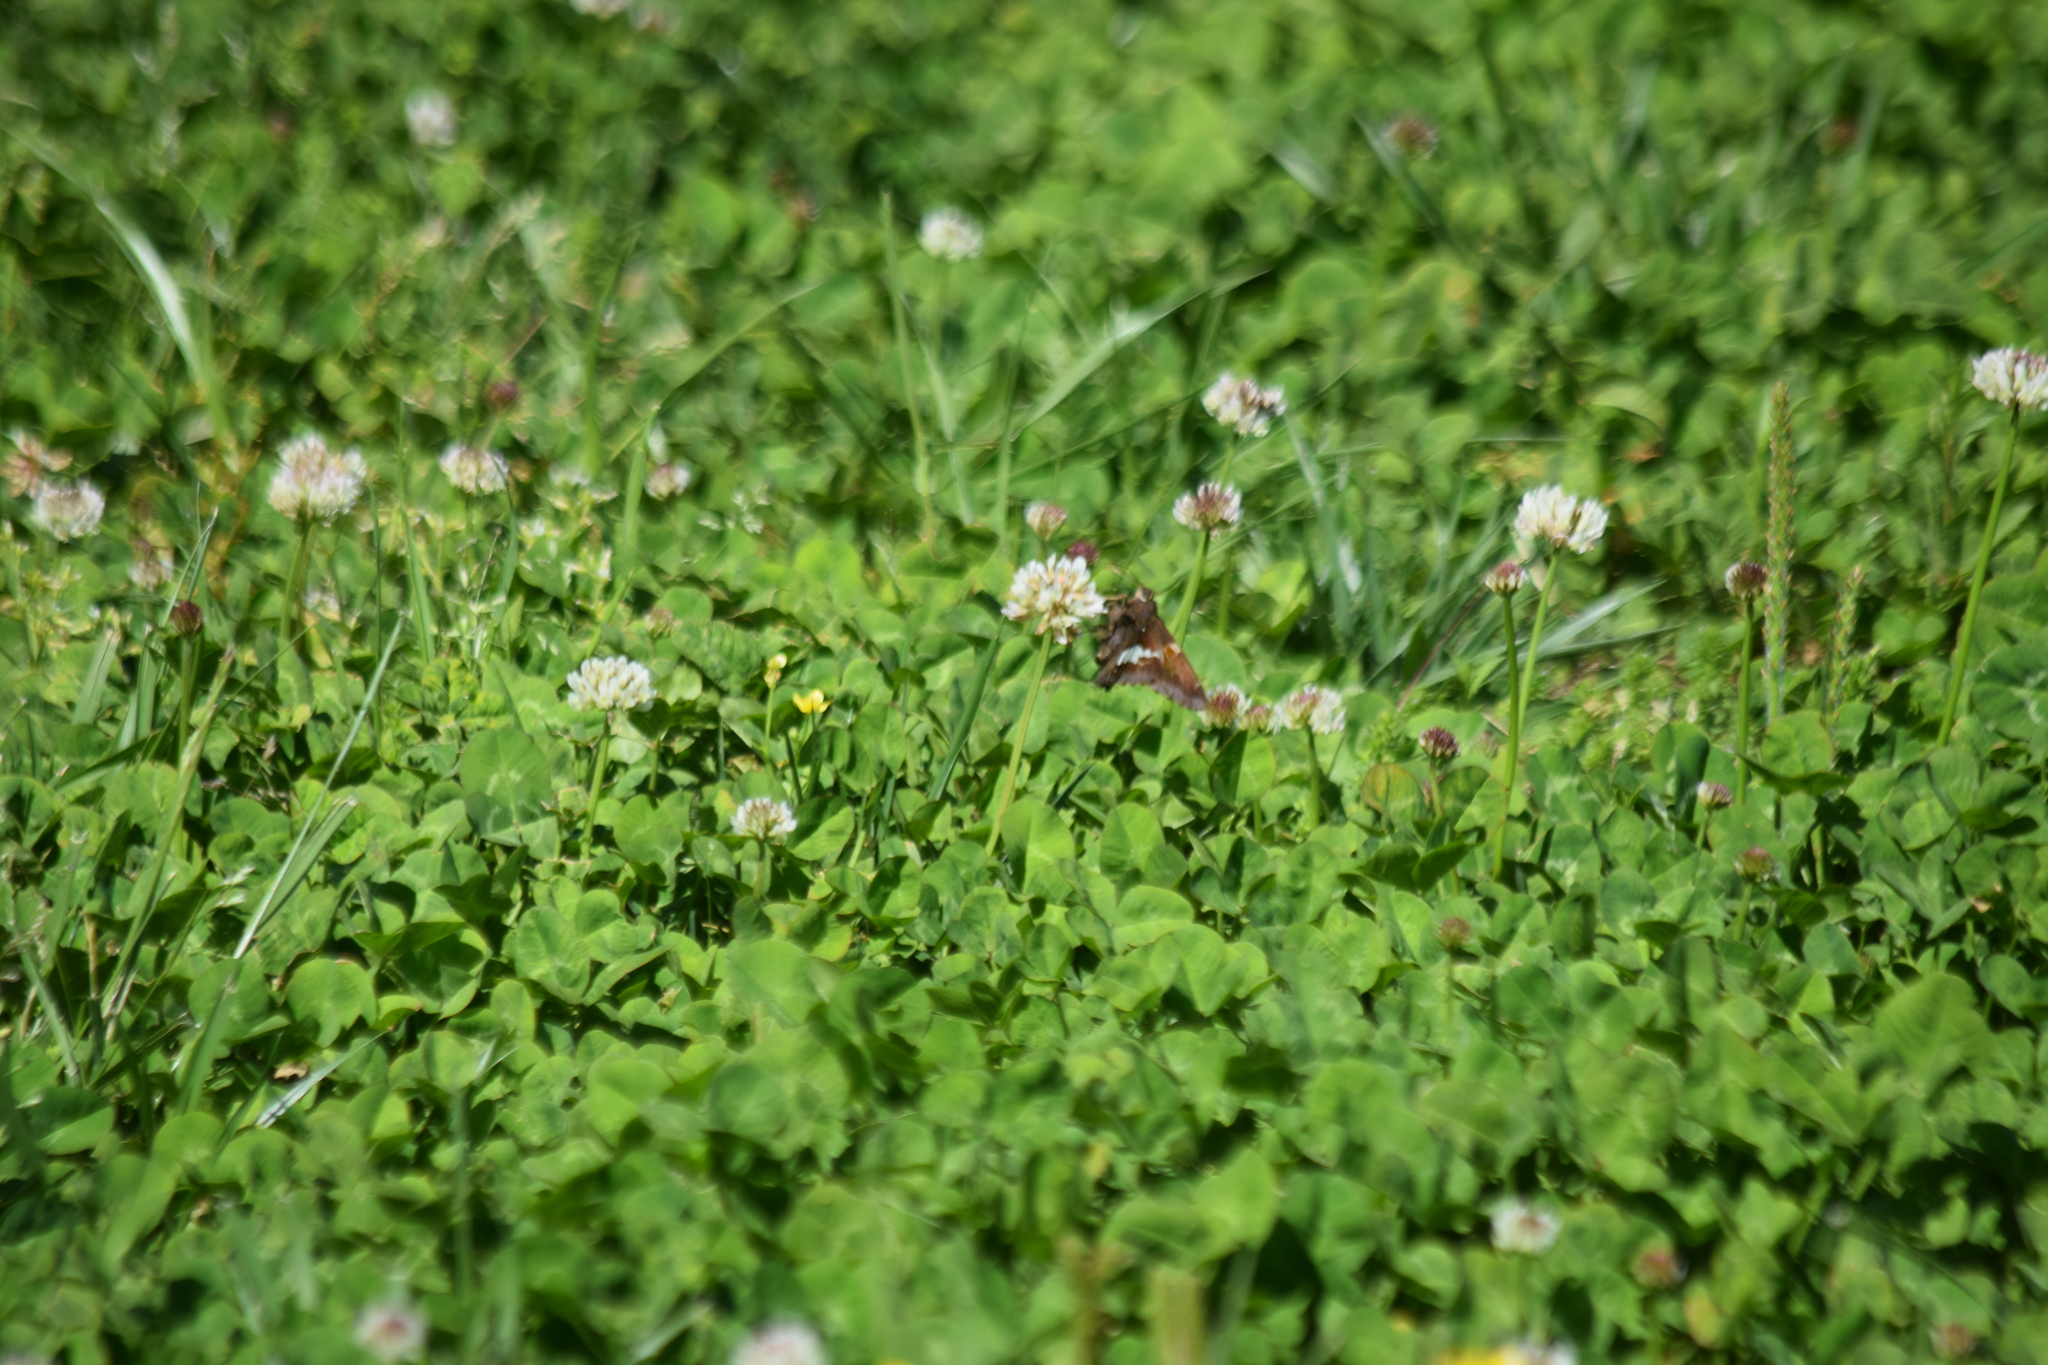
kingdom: Animalia
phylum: Arthropoda
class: Insecta
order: Lepidoptera
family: Hesperiidae
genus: Epargyreus
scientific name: Epargyreus clarus
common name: Silver-spotted skipper
